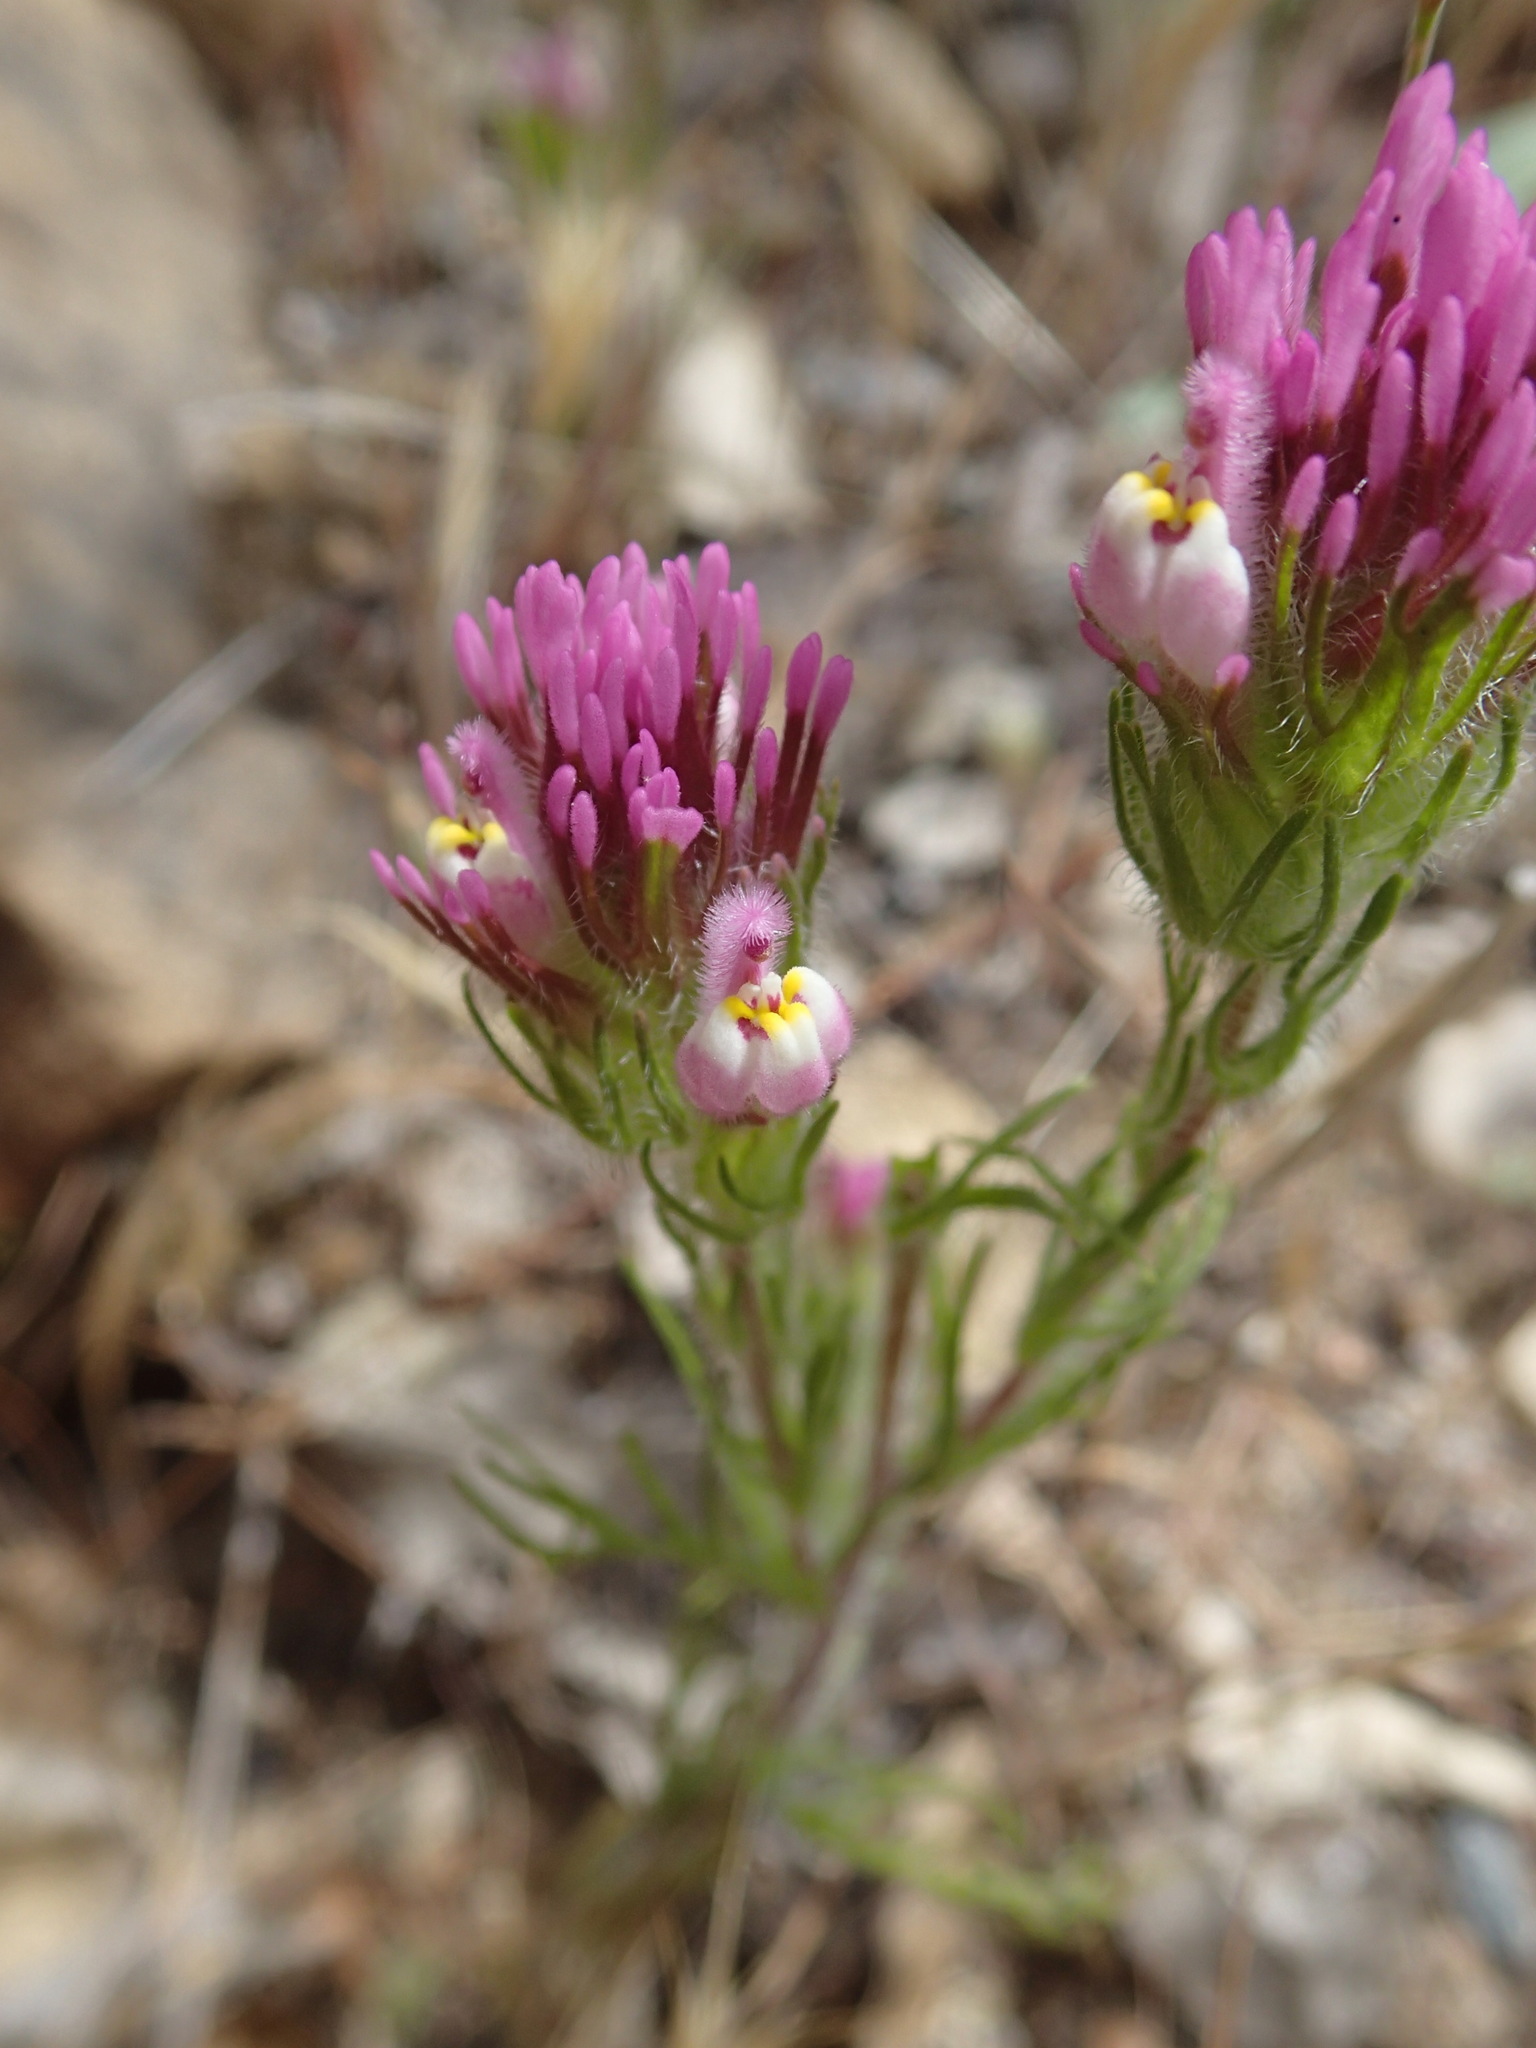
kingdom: Plantae
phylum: Tracheophyta
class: Magnoliopsida
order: Lamiales
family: Orobanchaceae
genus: Castilleja
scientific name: Castilleja exserta
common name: Purple owl-clover
